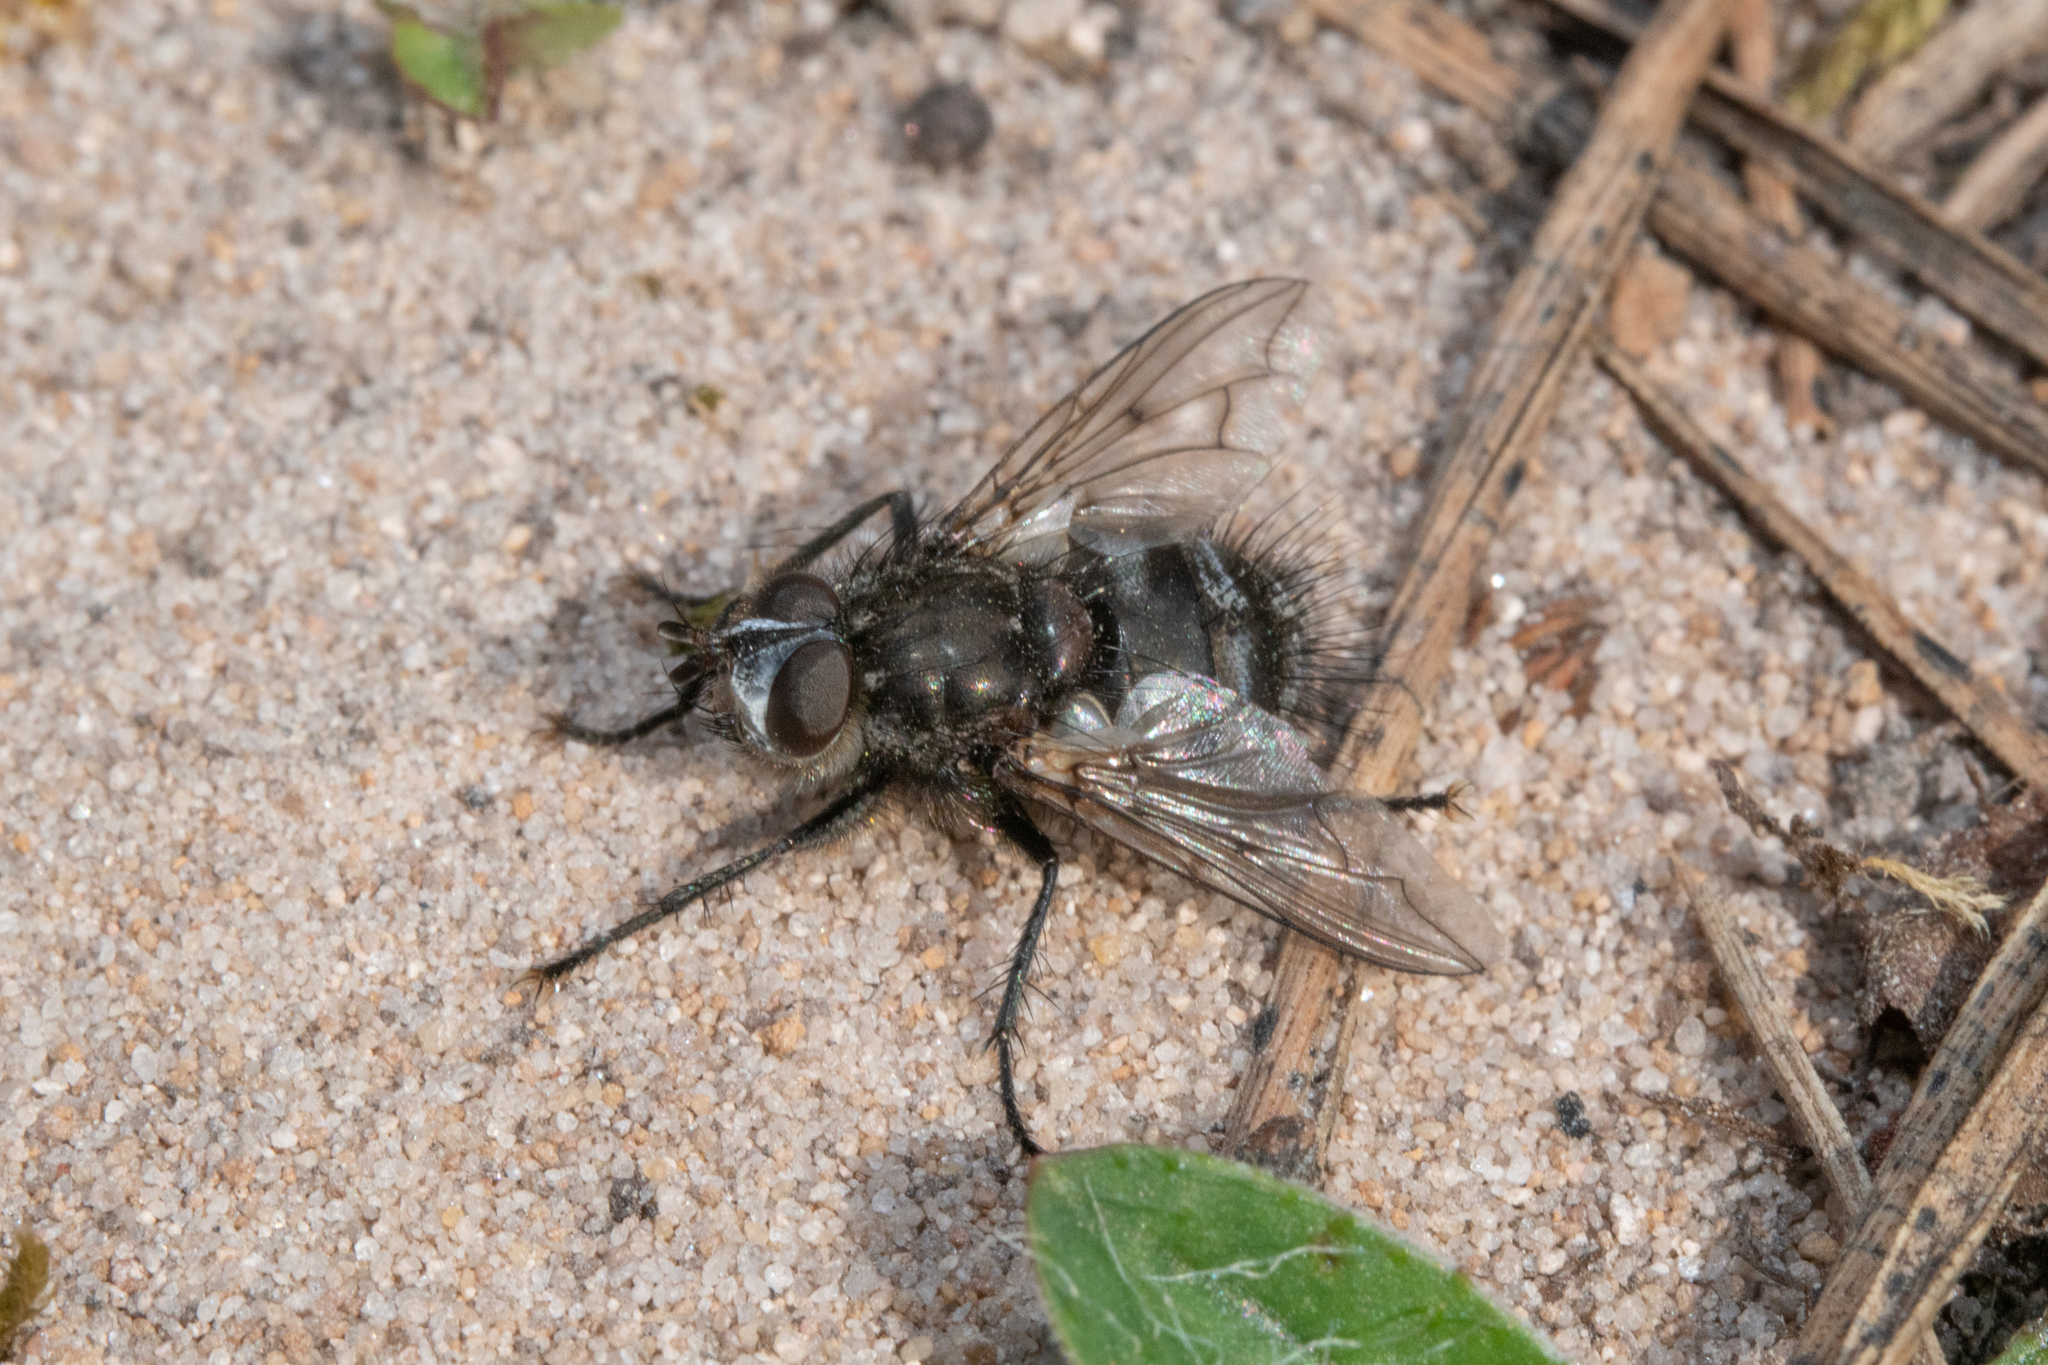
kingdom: Animalia
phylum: Arthropoda
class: Insecta
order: Diptera
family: Tachinidae
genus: Panzeria
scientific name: Panzeria puparum
